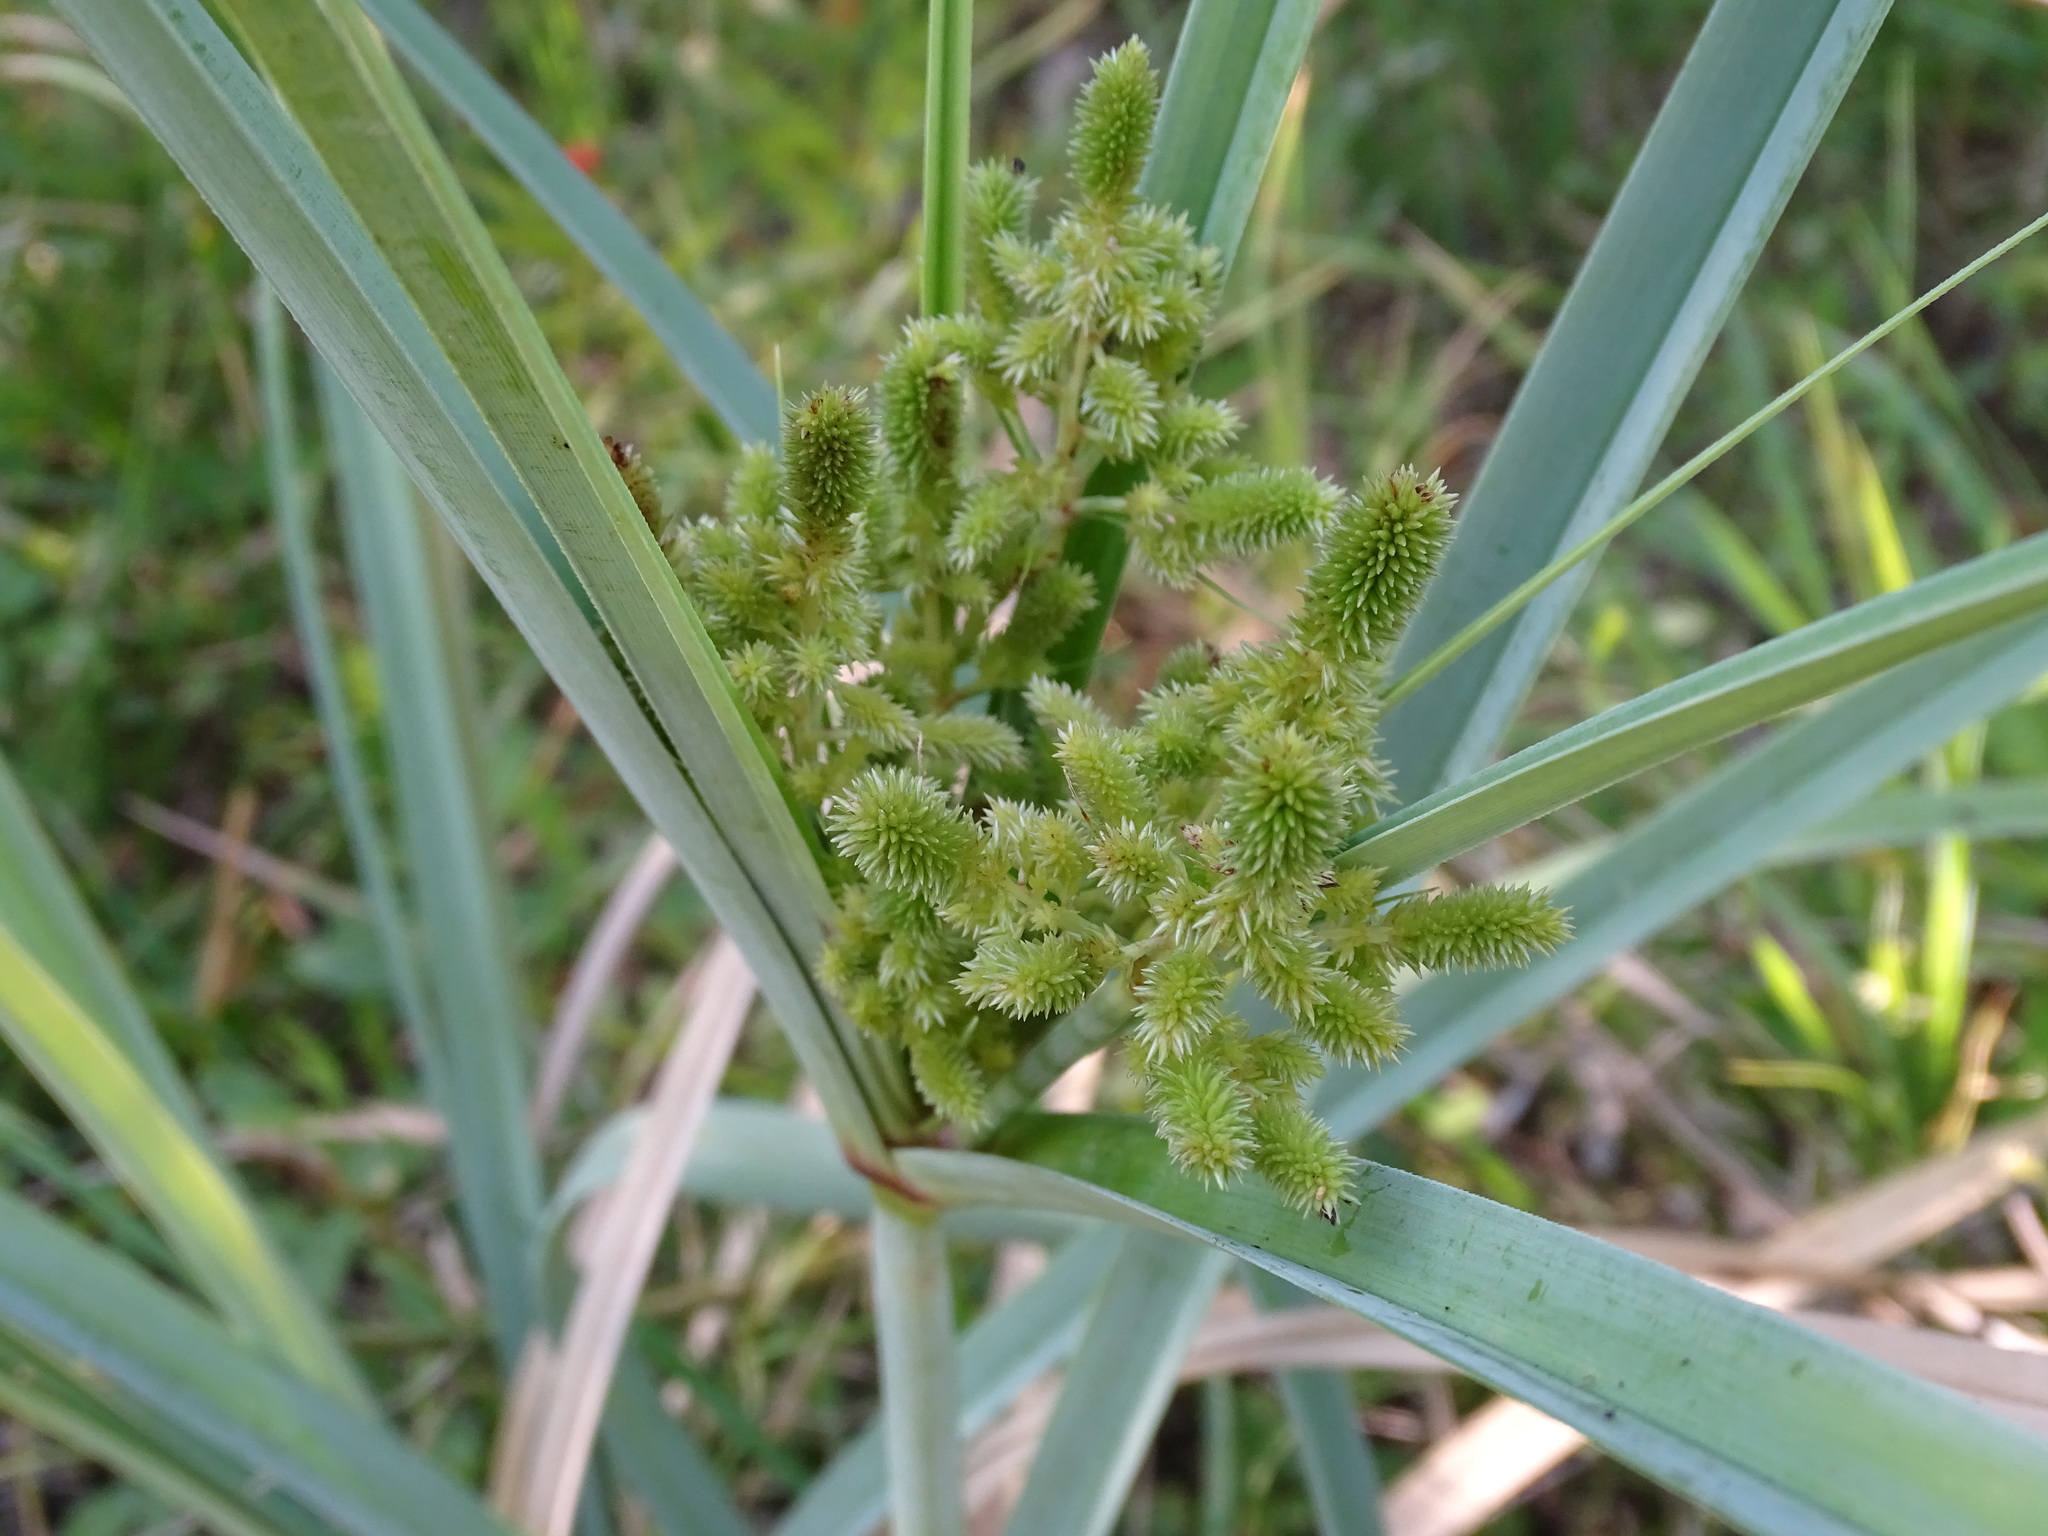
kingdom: Plantae
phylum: Tracheophyta
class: Liliopsida
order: Poales
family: Cyperaceae
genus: Cyperus
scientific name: Cyperus ligularis
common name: Swamp flat sedge
